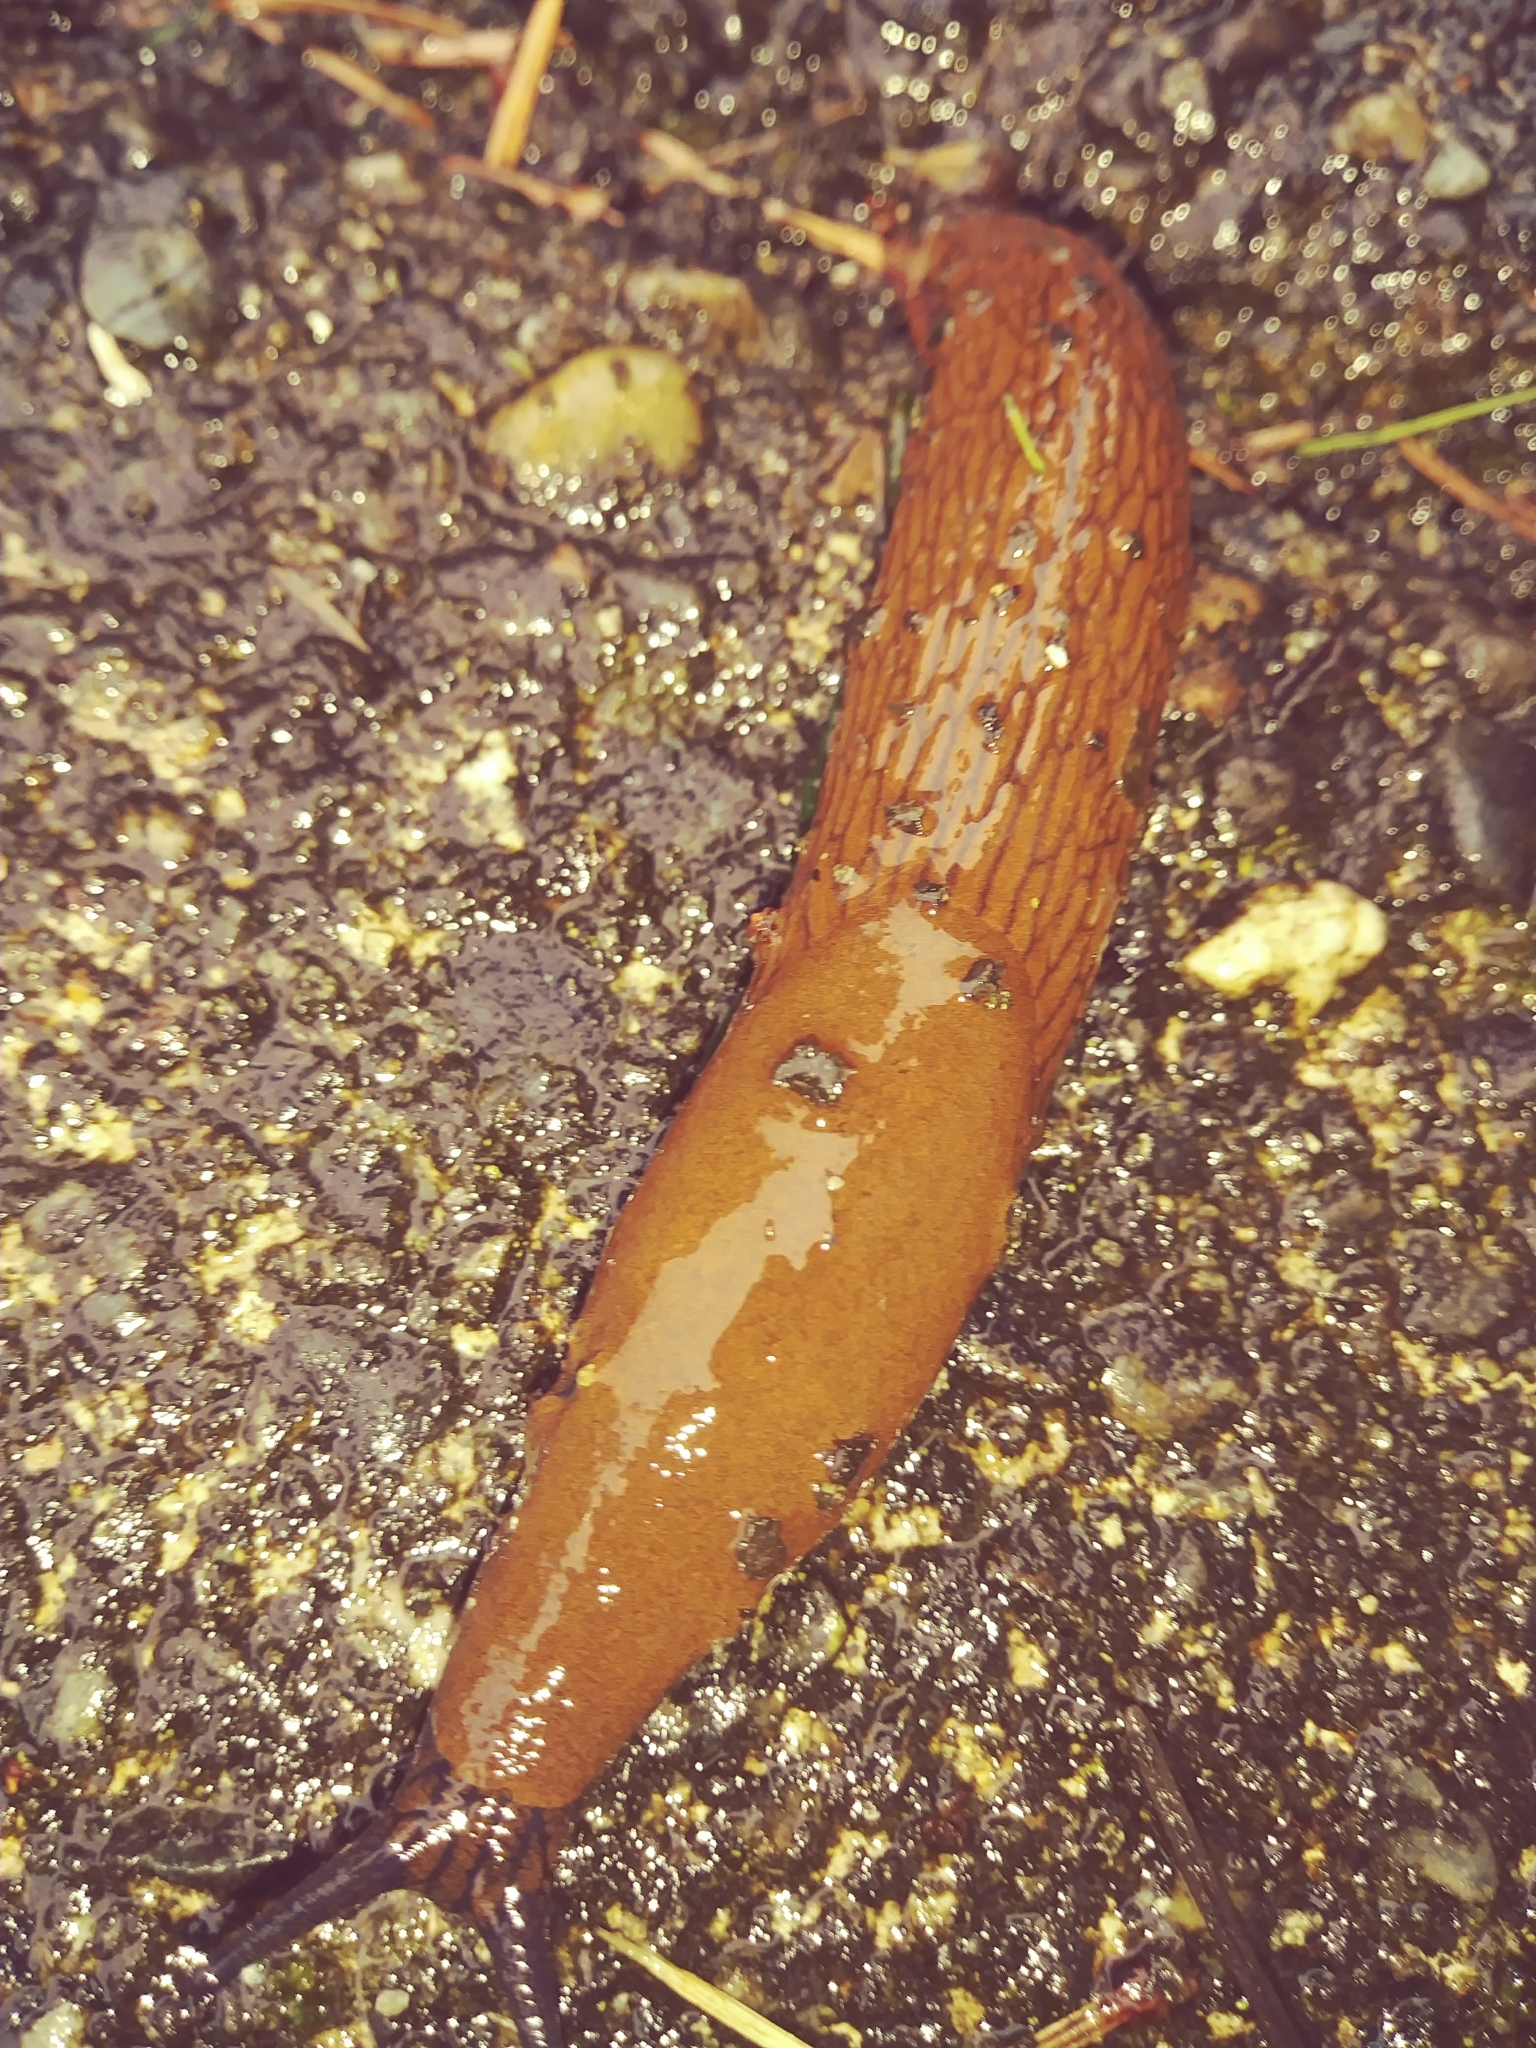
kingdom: Animalia
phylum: Mollusca
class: Gastropoda
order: Stylommatophora
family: Arionidae
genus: Arion
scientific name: Arion rufus
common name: Chocolate arion
